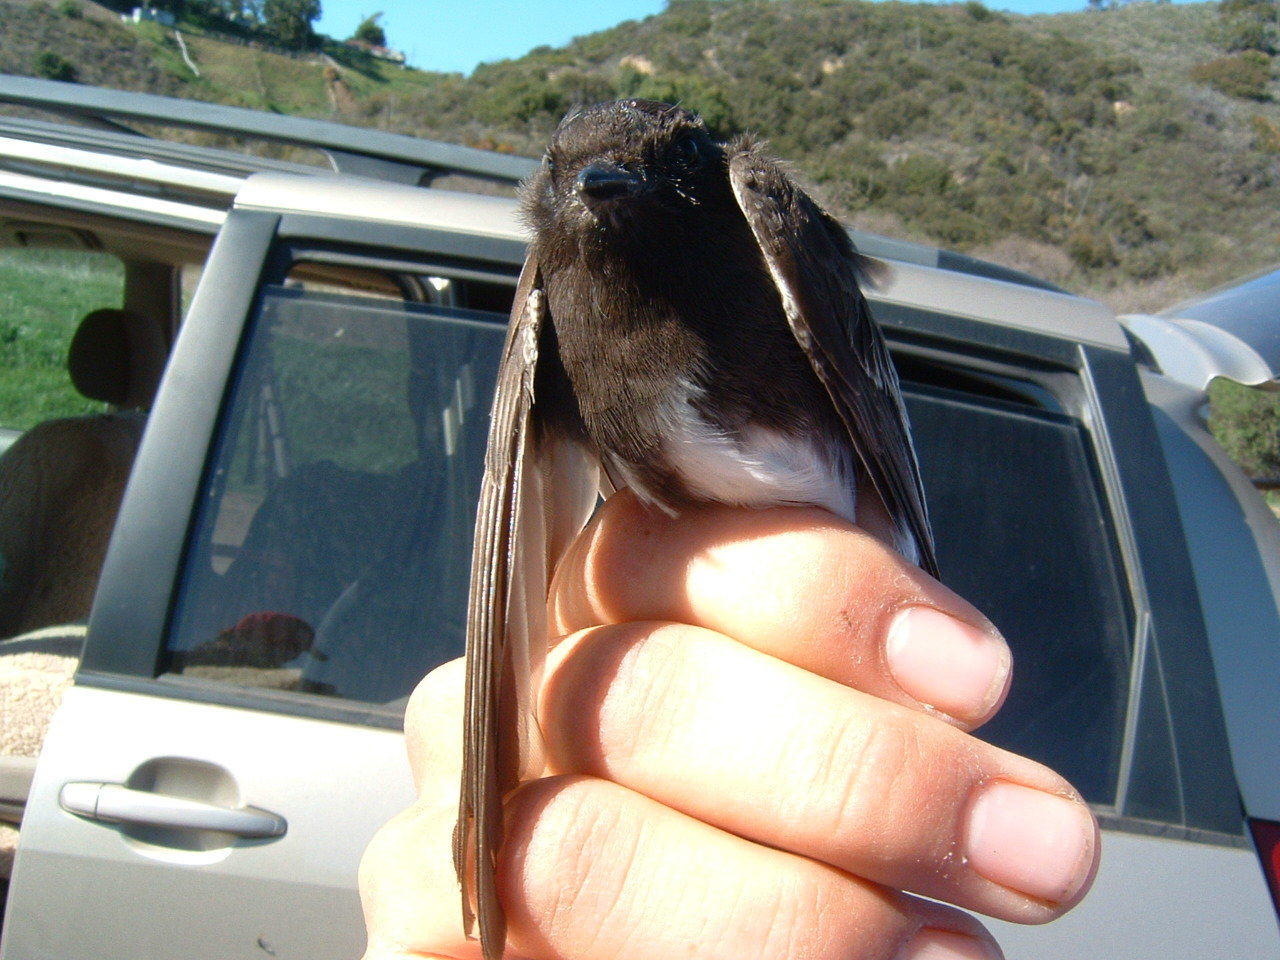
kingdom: Animalia
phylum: Chordata
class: Aves
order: Passeriformes
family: Tyrannidae
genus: Sayornis
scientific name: Sayornis nigricans
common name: Black phoebe
